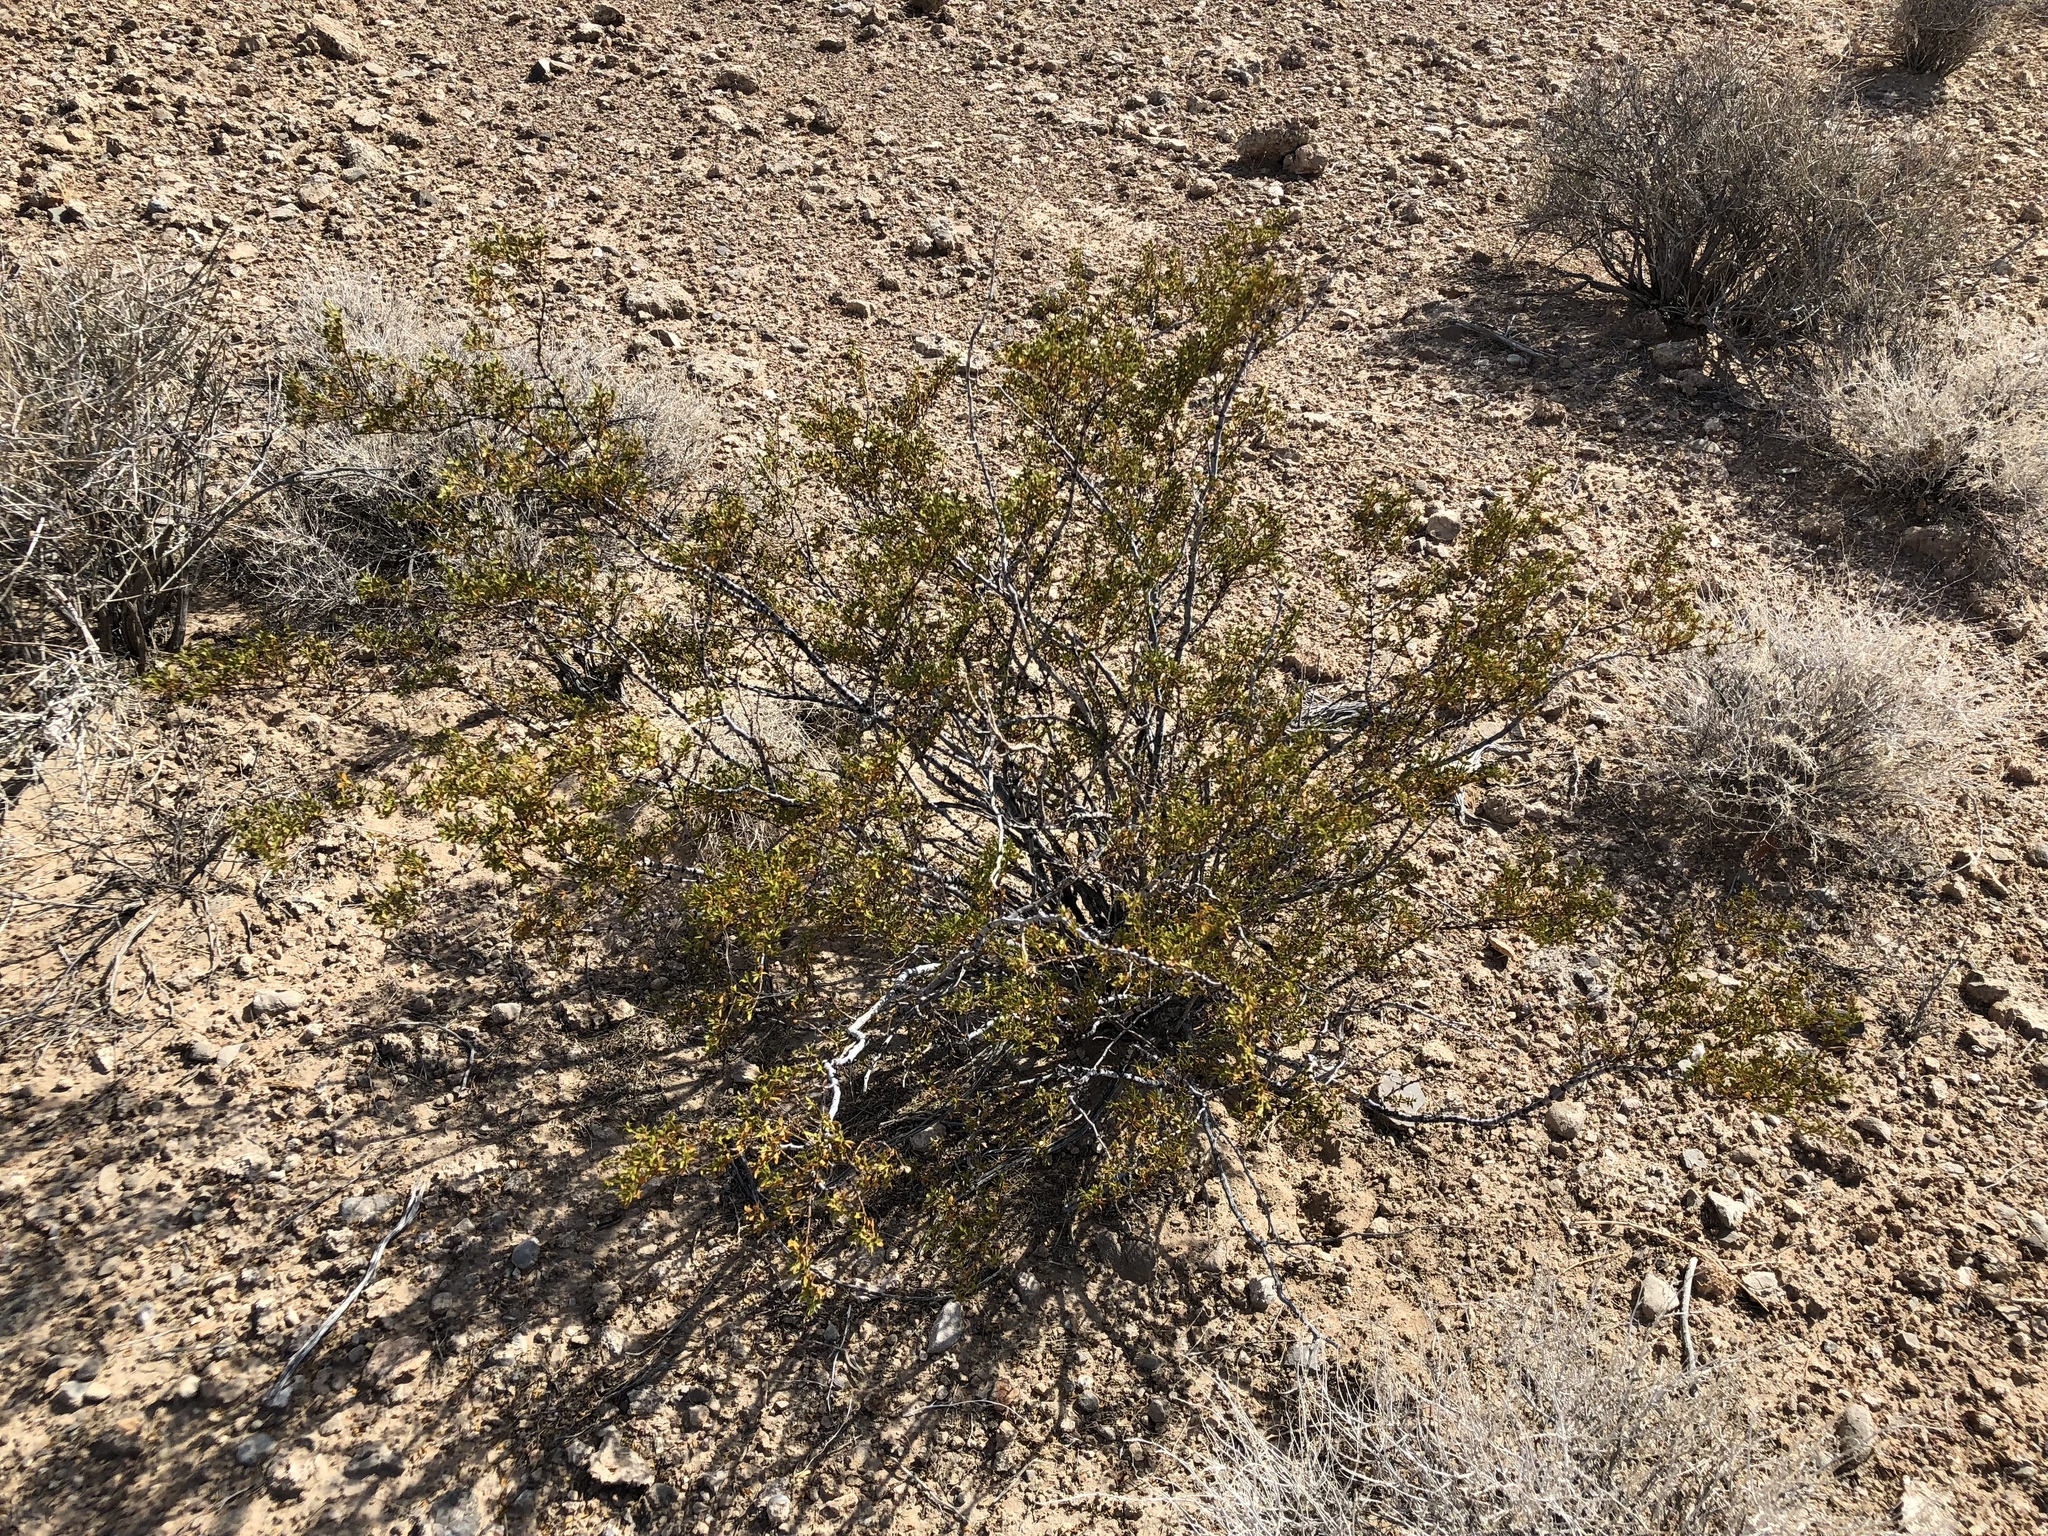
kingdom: Plantae
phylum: Tracheophyta
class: Magnoliopsida
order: Zygophyllales
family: Zygophyllaceae
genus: Larrea
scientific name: Larrea tridentata
